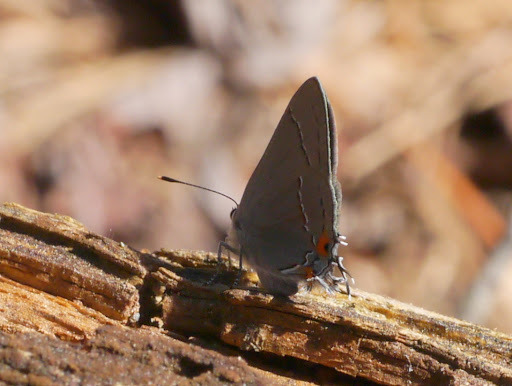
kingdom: Animalia
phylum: Arthropoda
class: Insecta
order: Lepidoptera
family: Lycaenidae
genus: Strymon
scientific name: Strymon melinus
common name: Gray hairstreak
